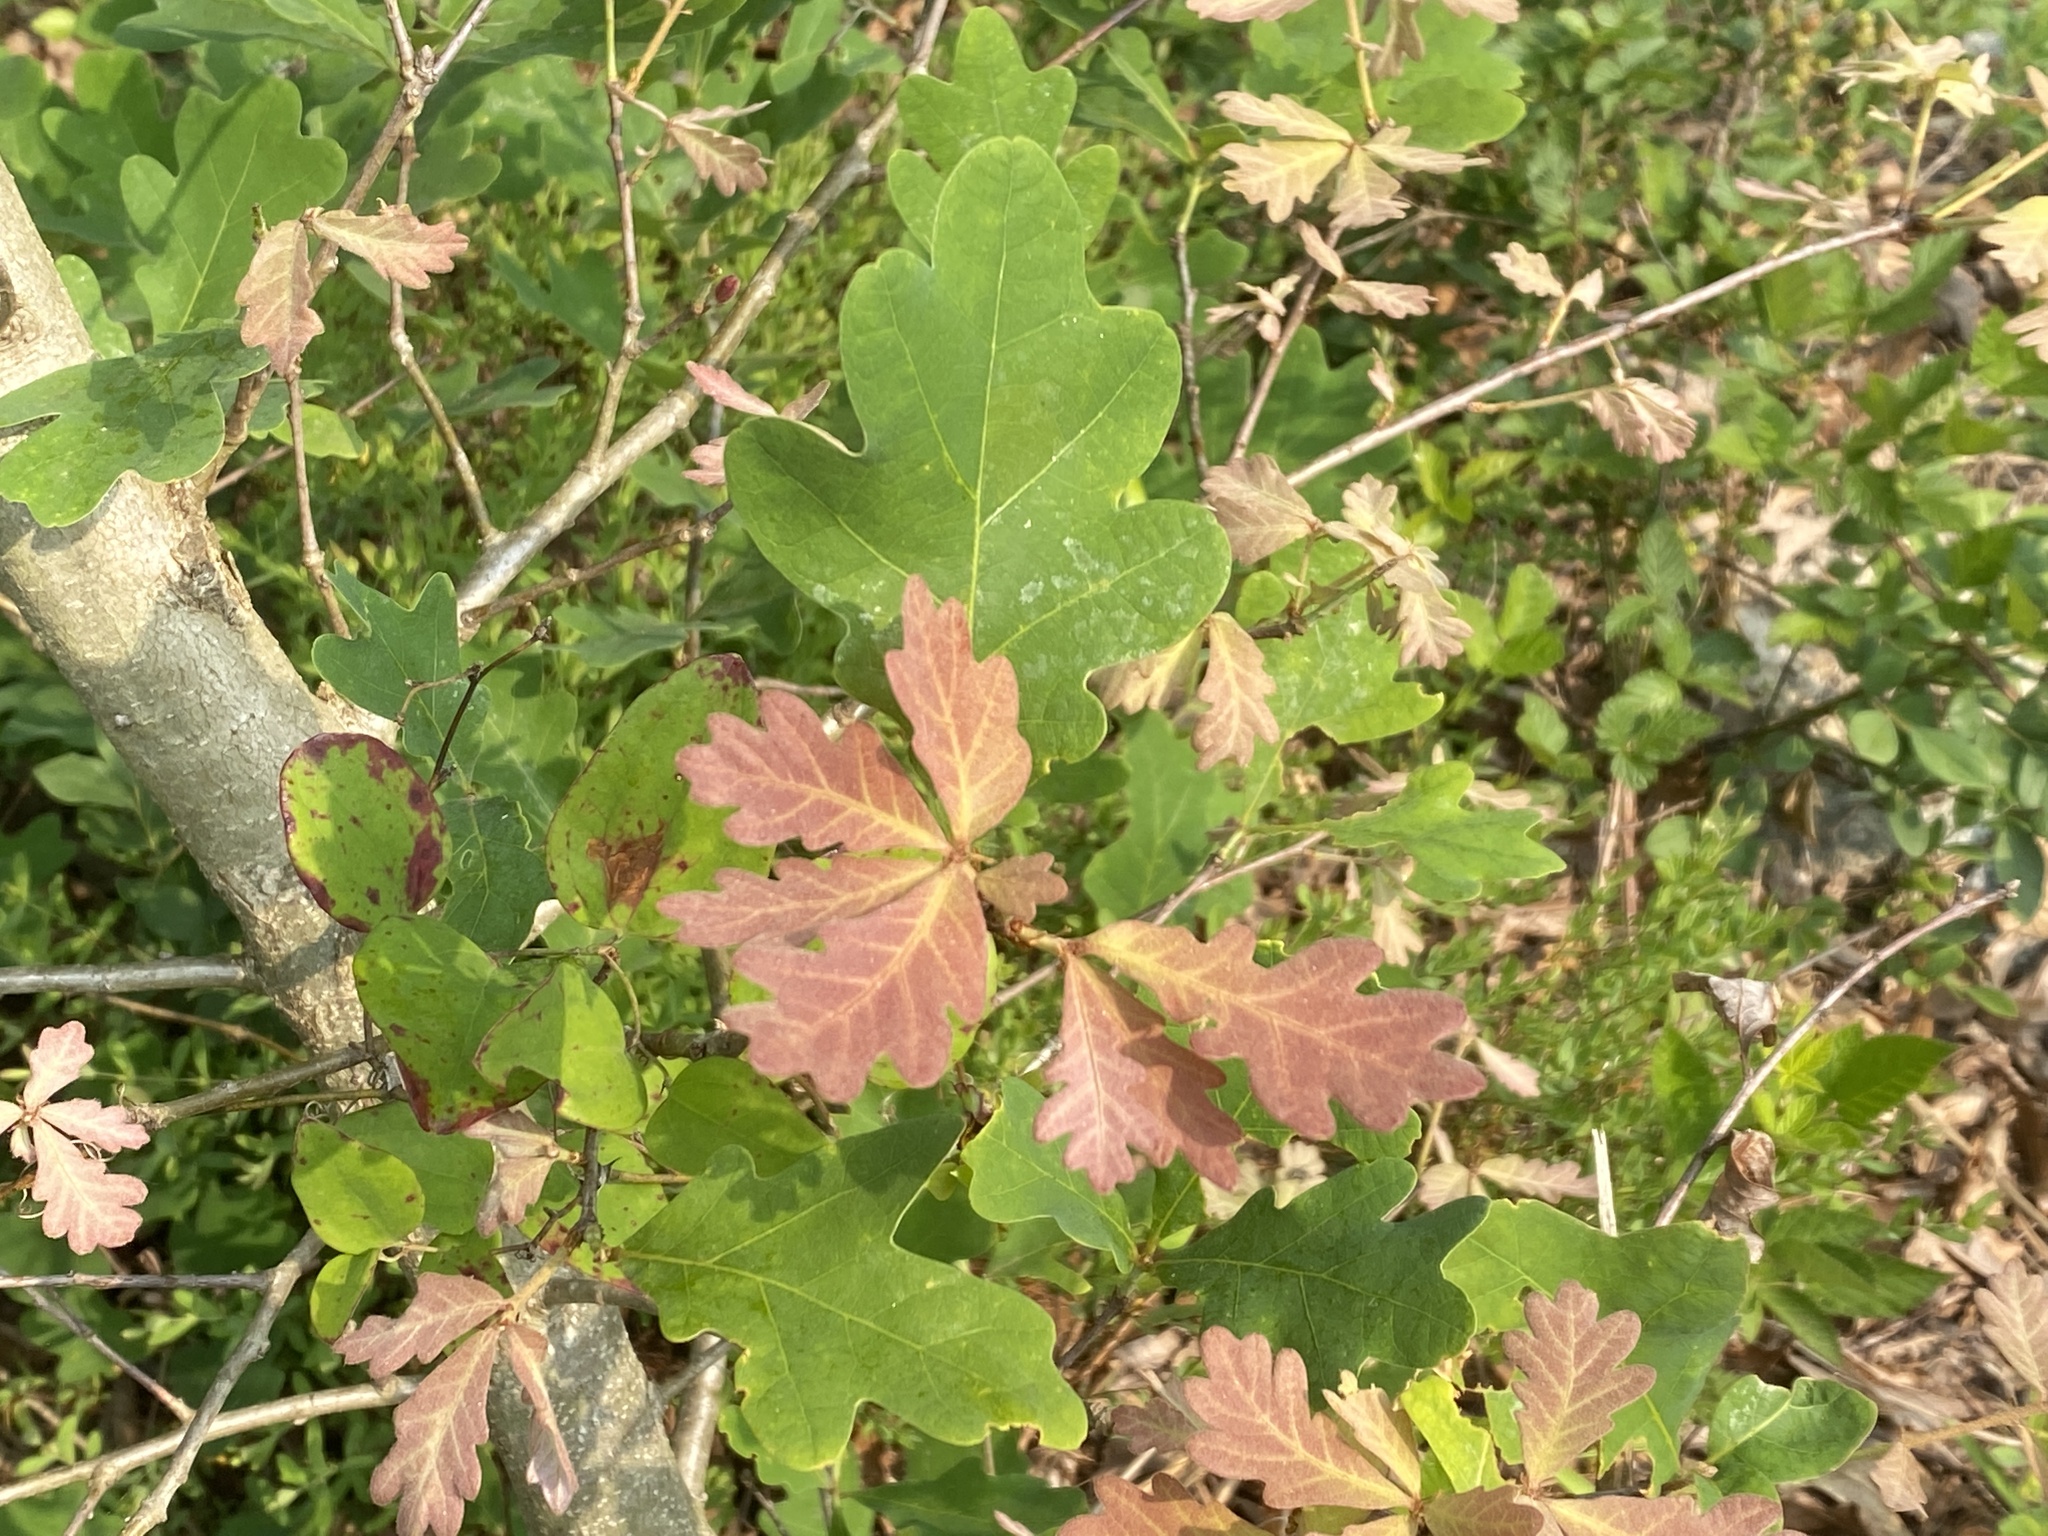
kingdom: Plantae
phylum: Tracheophyta
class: Magnoliopsida
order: Fagales
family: Fagaceae
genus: Quercus
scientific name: Quercus alba
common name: White oak
